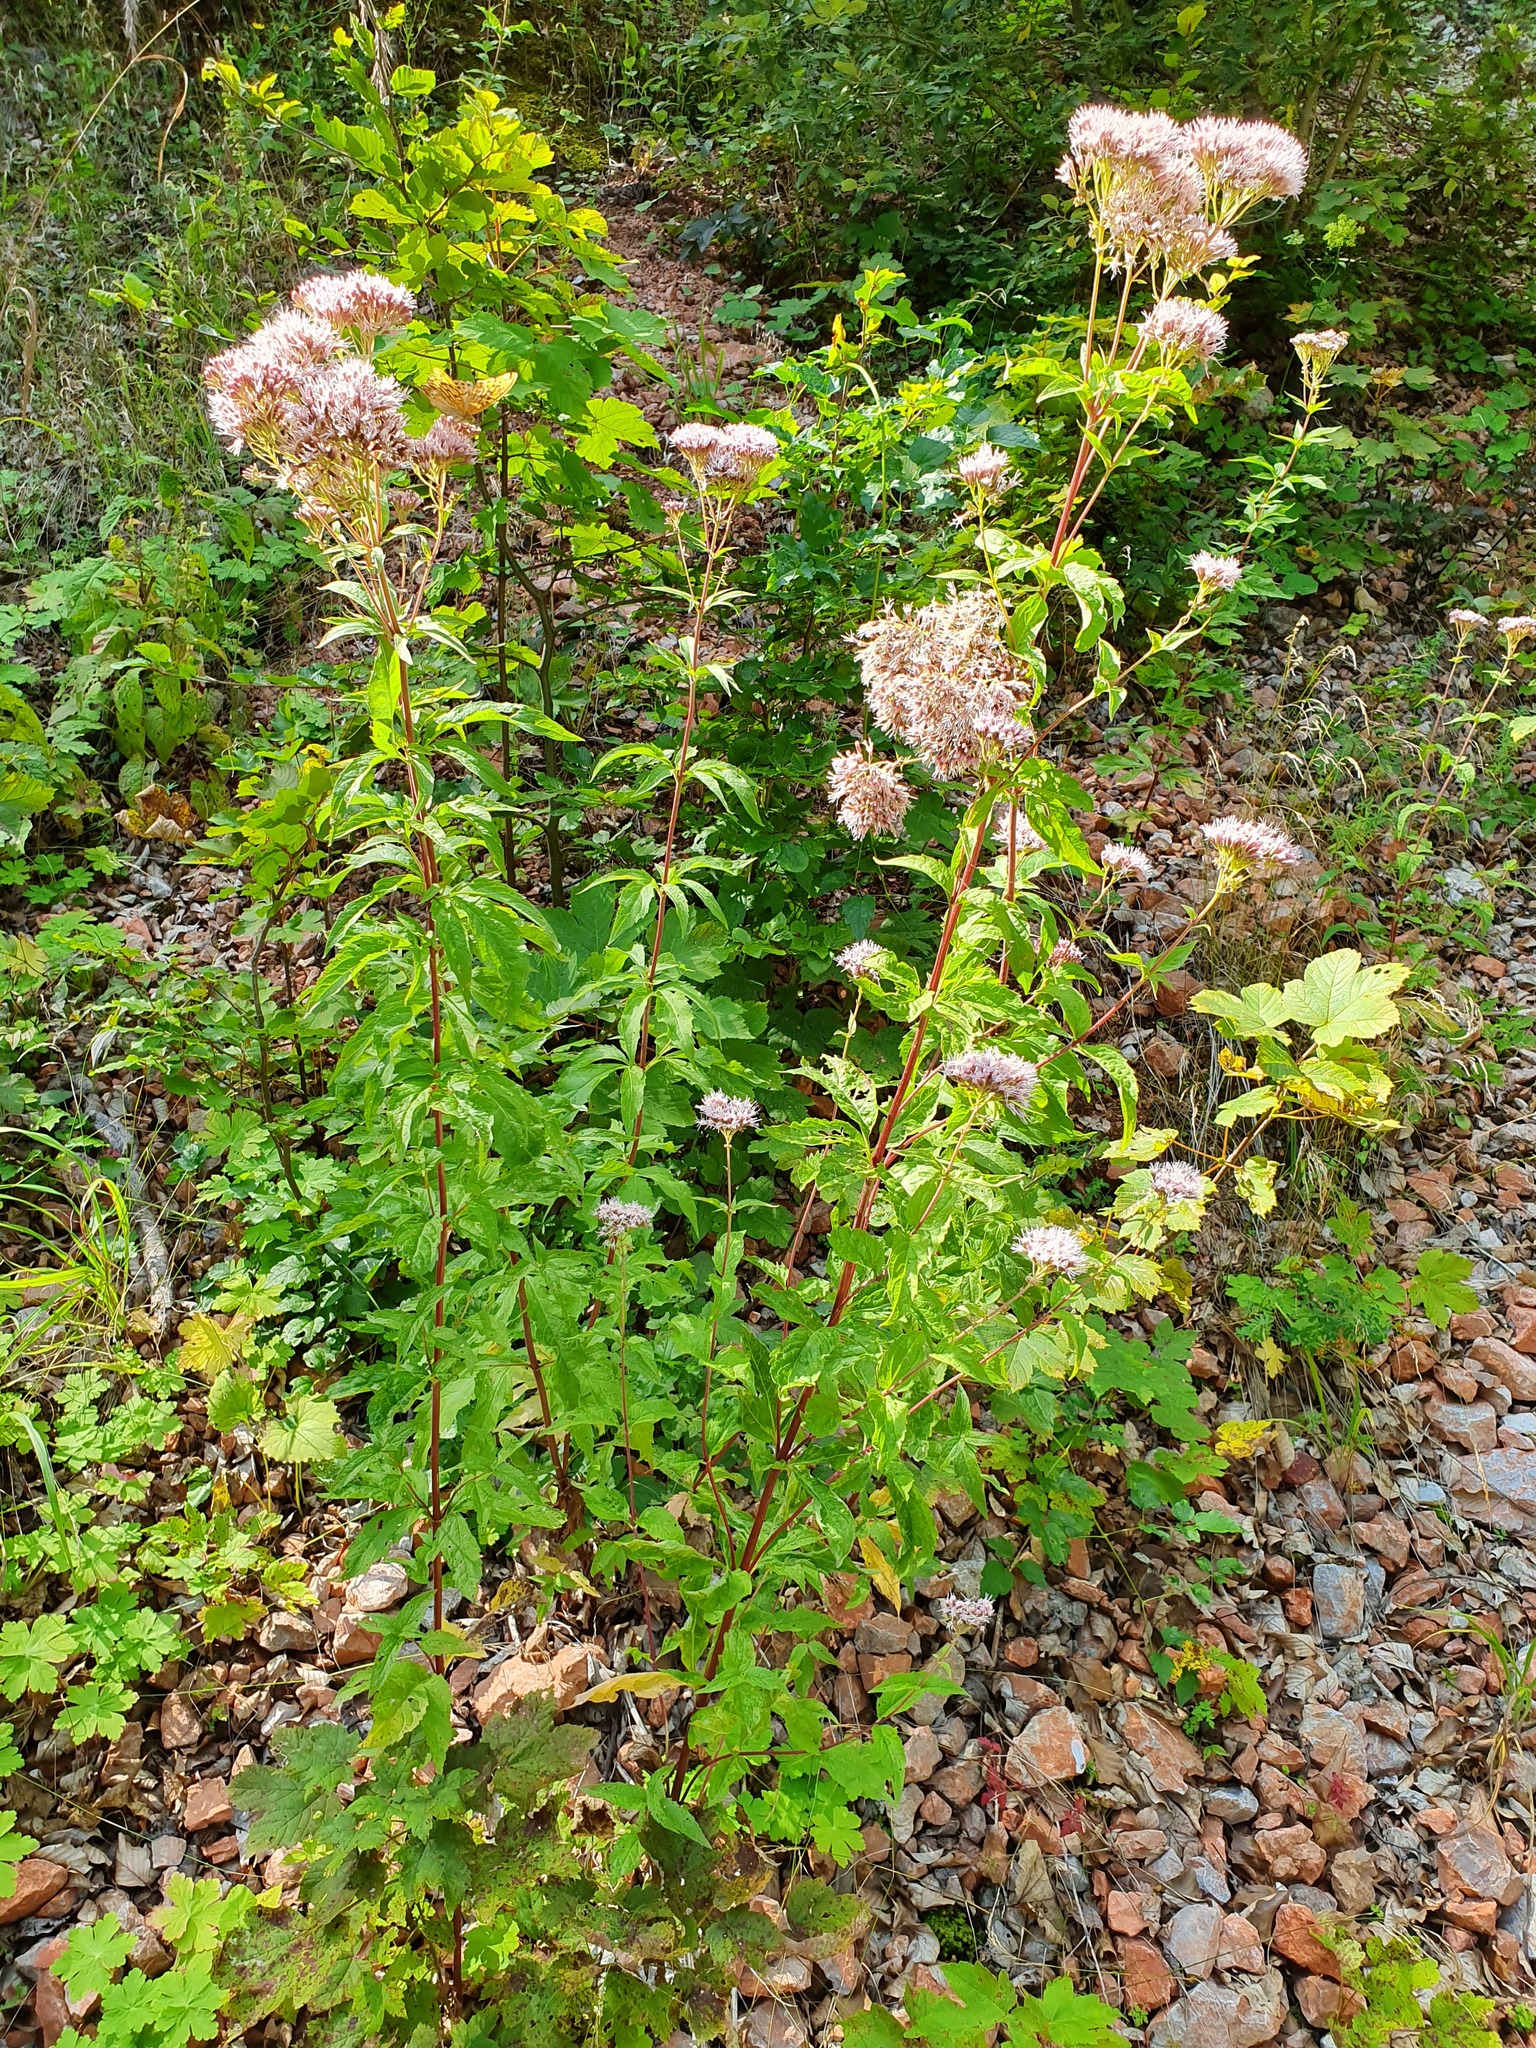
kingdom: Plantae
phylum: Tracheophyta
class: Magnoliopsida
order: Asterales
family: Asteraceae
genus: Eupatorium
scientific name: Eupatorium cannabinum
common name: Hemp-agrimony
